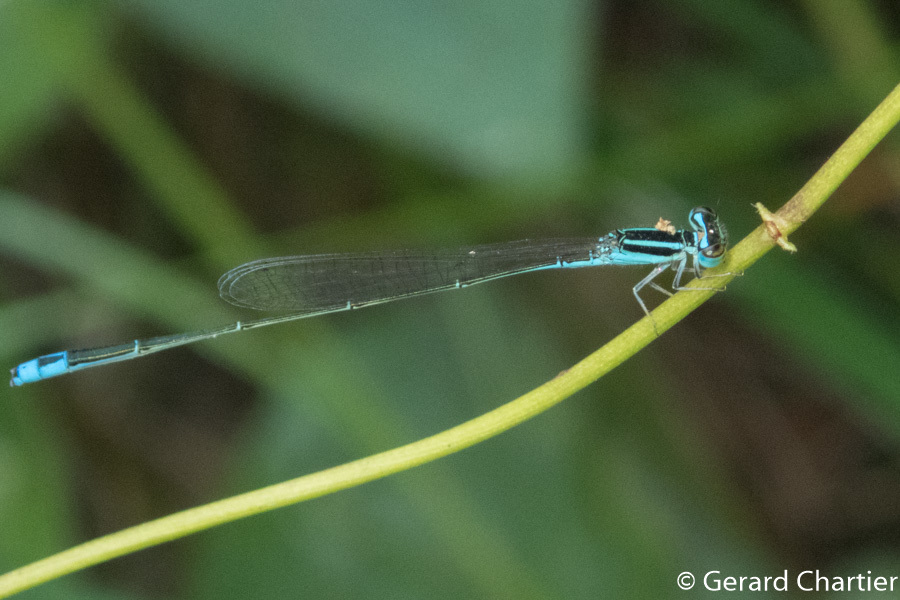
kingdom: Animalia
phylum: Arthropoda
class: Insecta
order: Odonata
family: Coenagrionidae
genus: Aciagrion
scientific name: Aciagrion borneense
